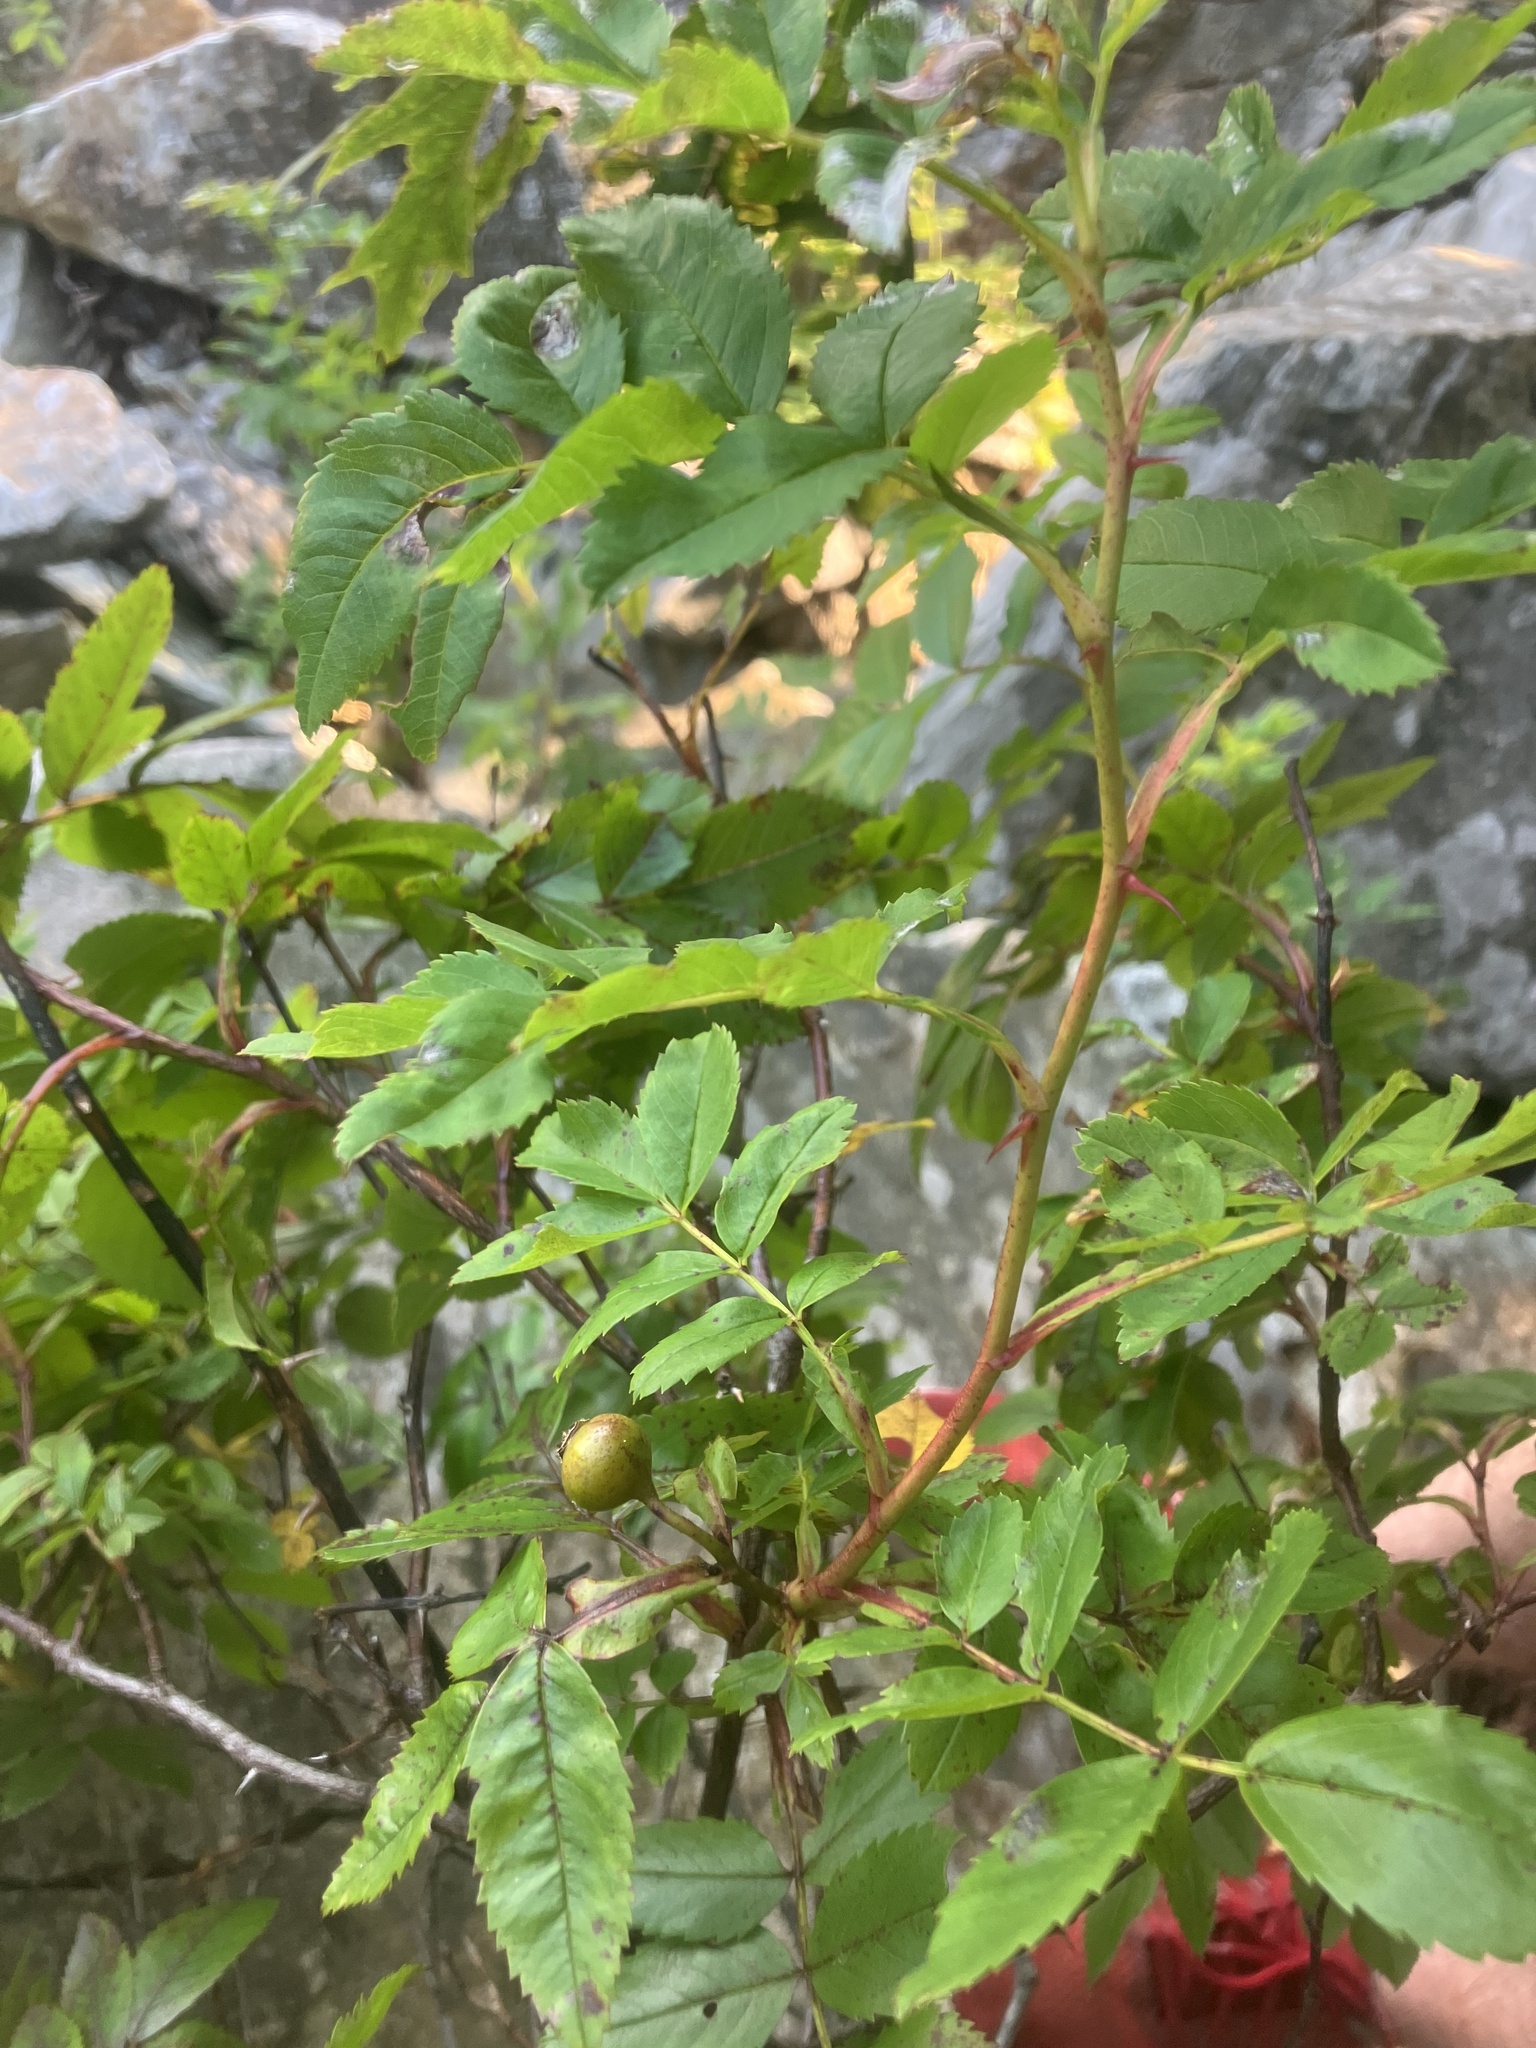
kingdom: Plantae
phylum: Tracheophyta
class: Magnoliopsida
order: Rosales
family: Rosaceae
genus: Rosa
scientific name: Rosa virginiana
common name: Virginian rose
